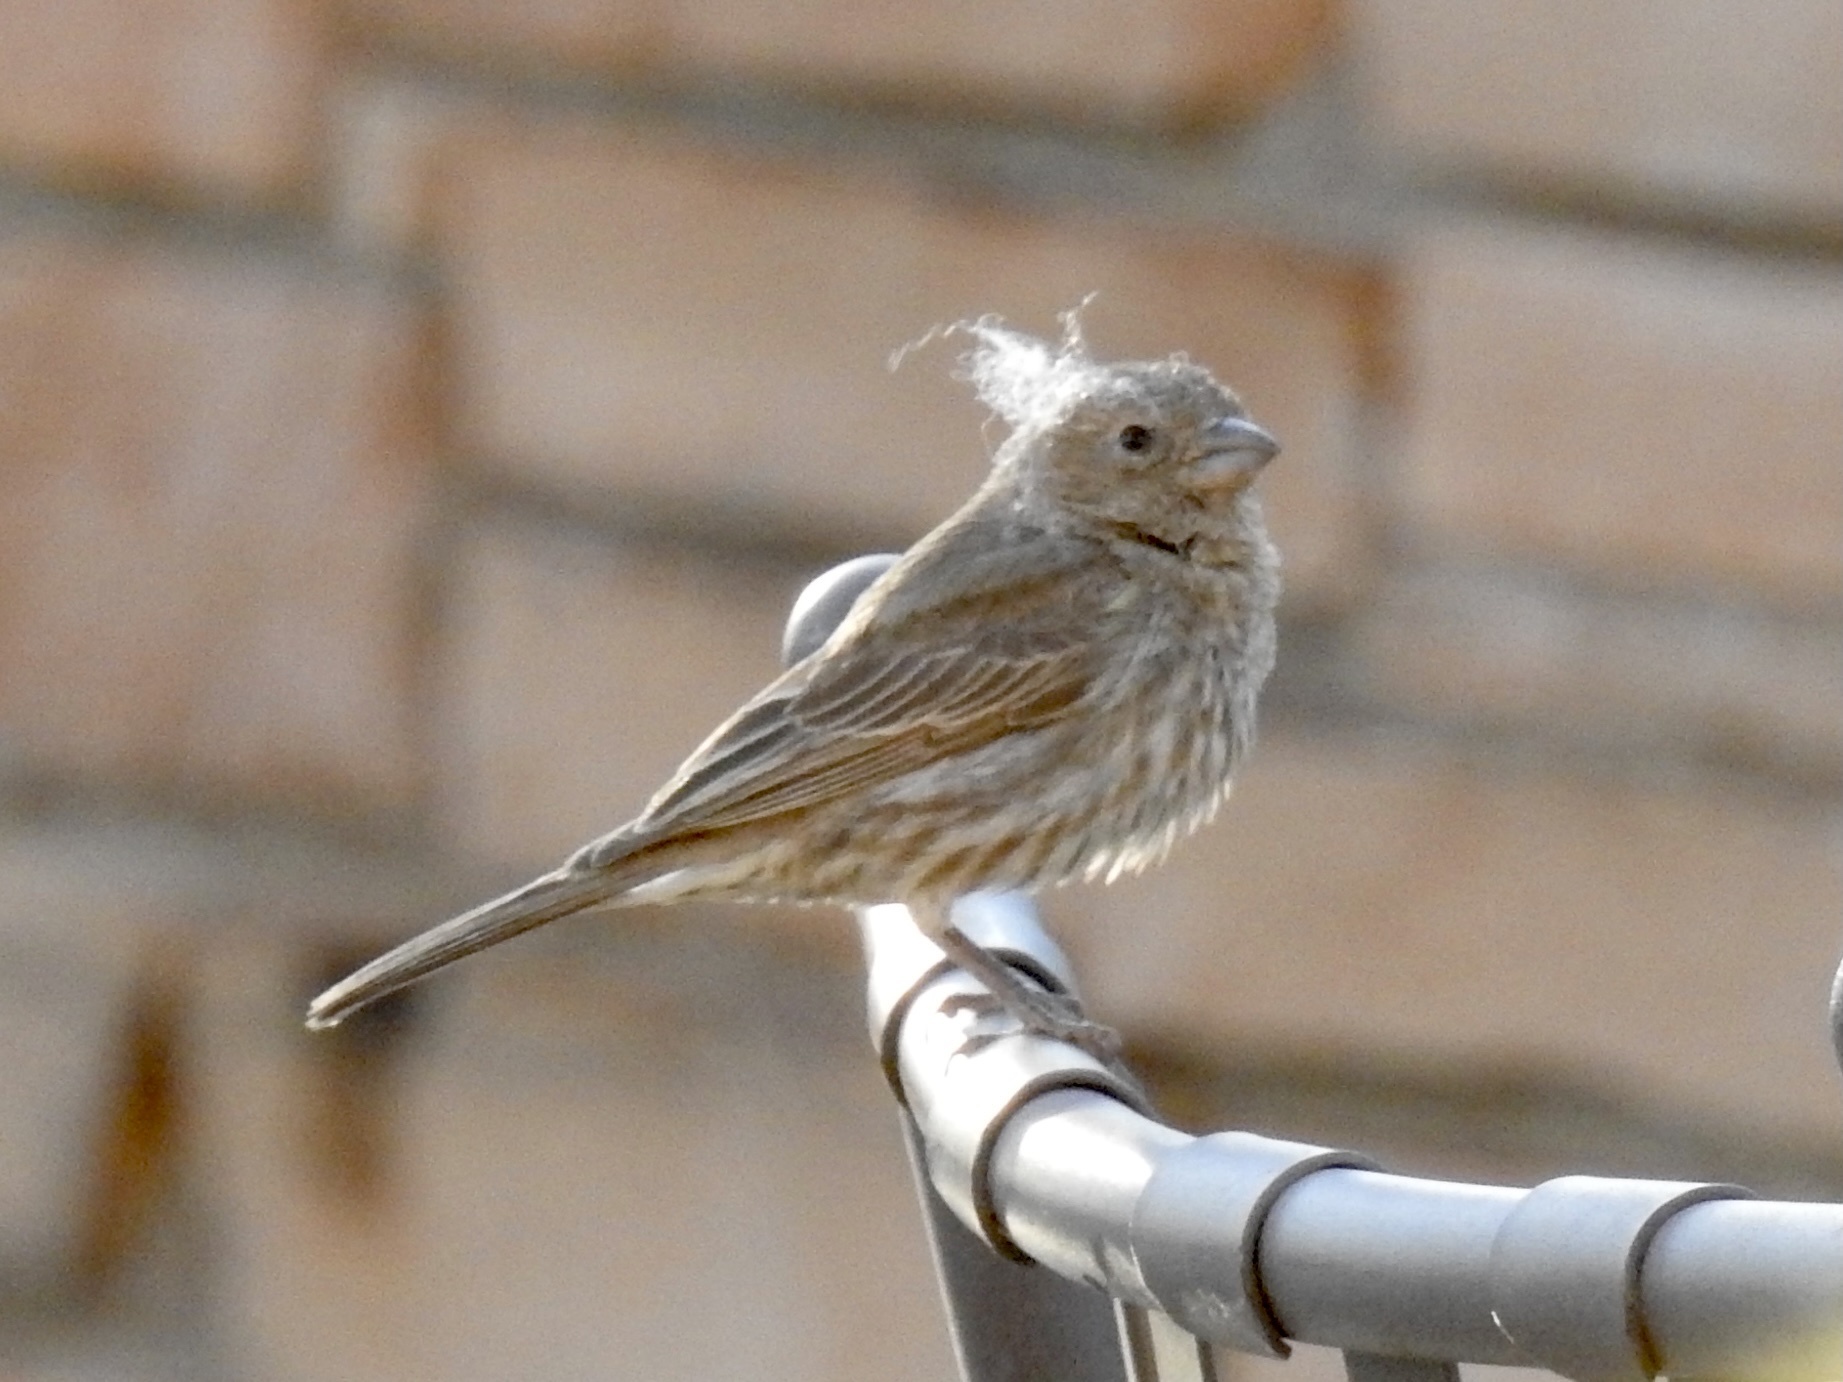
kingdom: Animalia
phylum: Chordata
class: Aves
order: Passeriformes
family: Fringillidae
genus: Haemorhous
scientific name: Haemorhous mexicanus
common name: House finch
